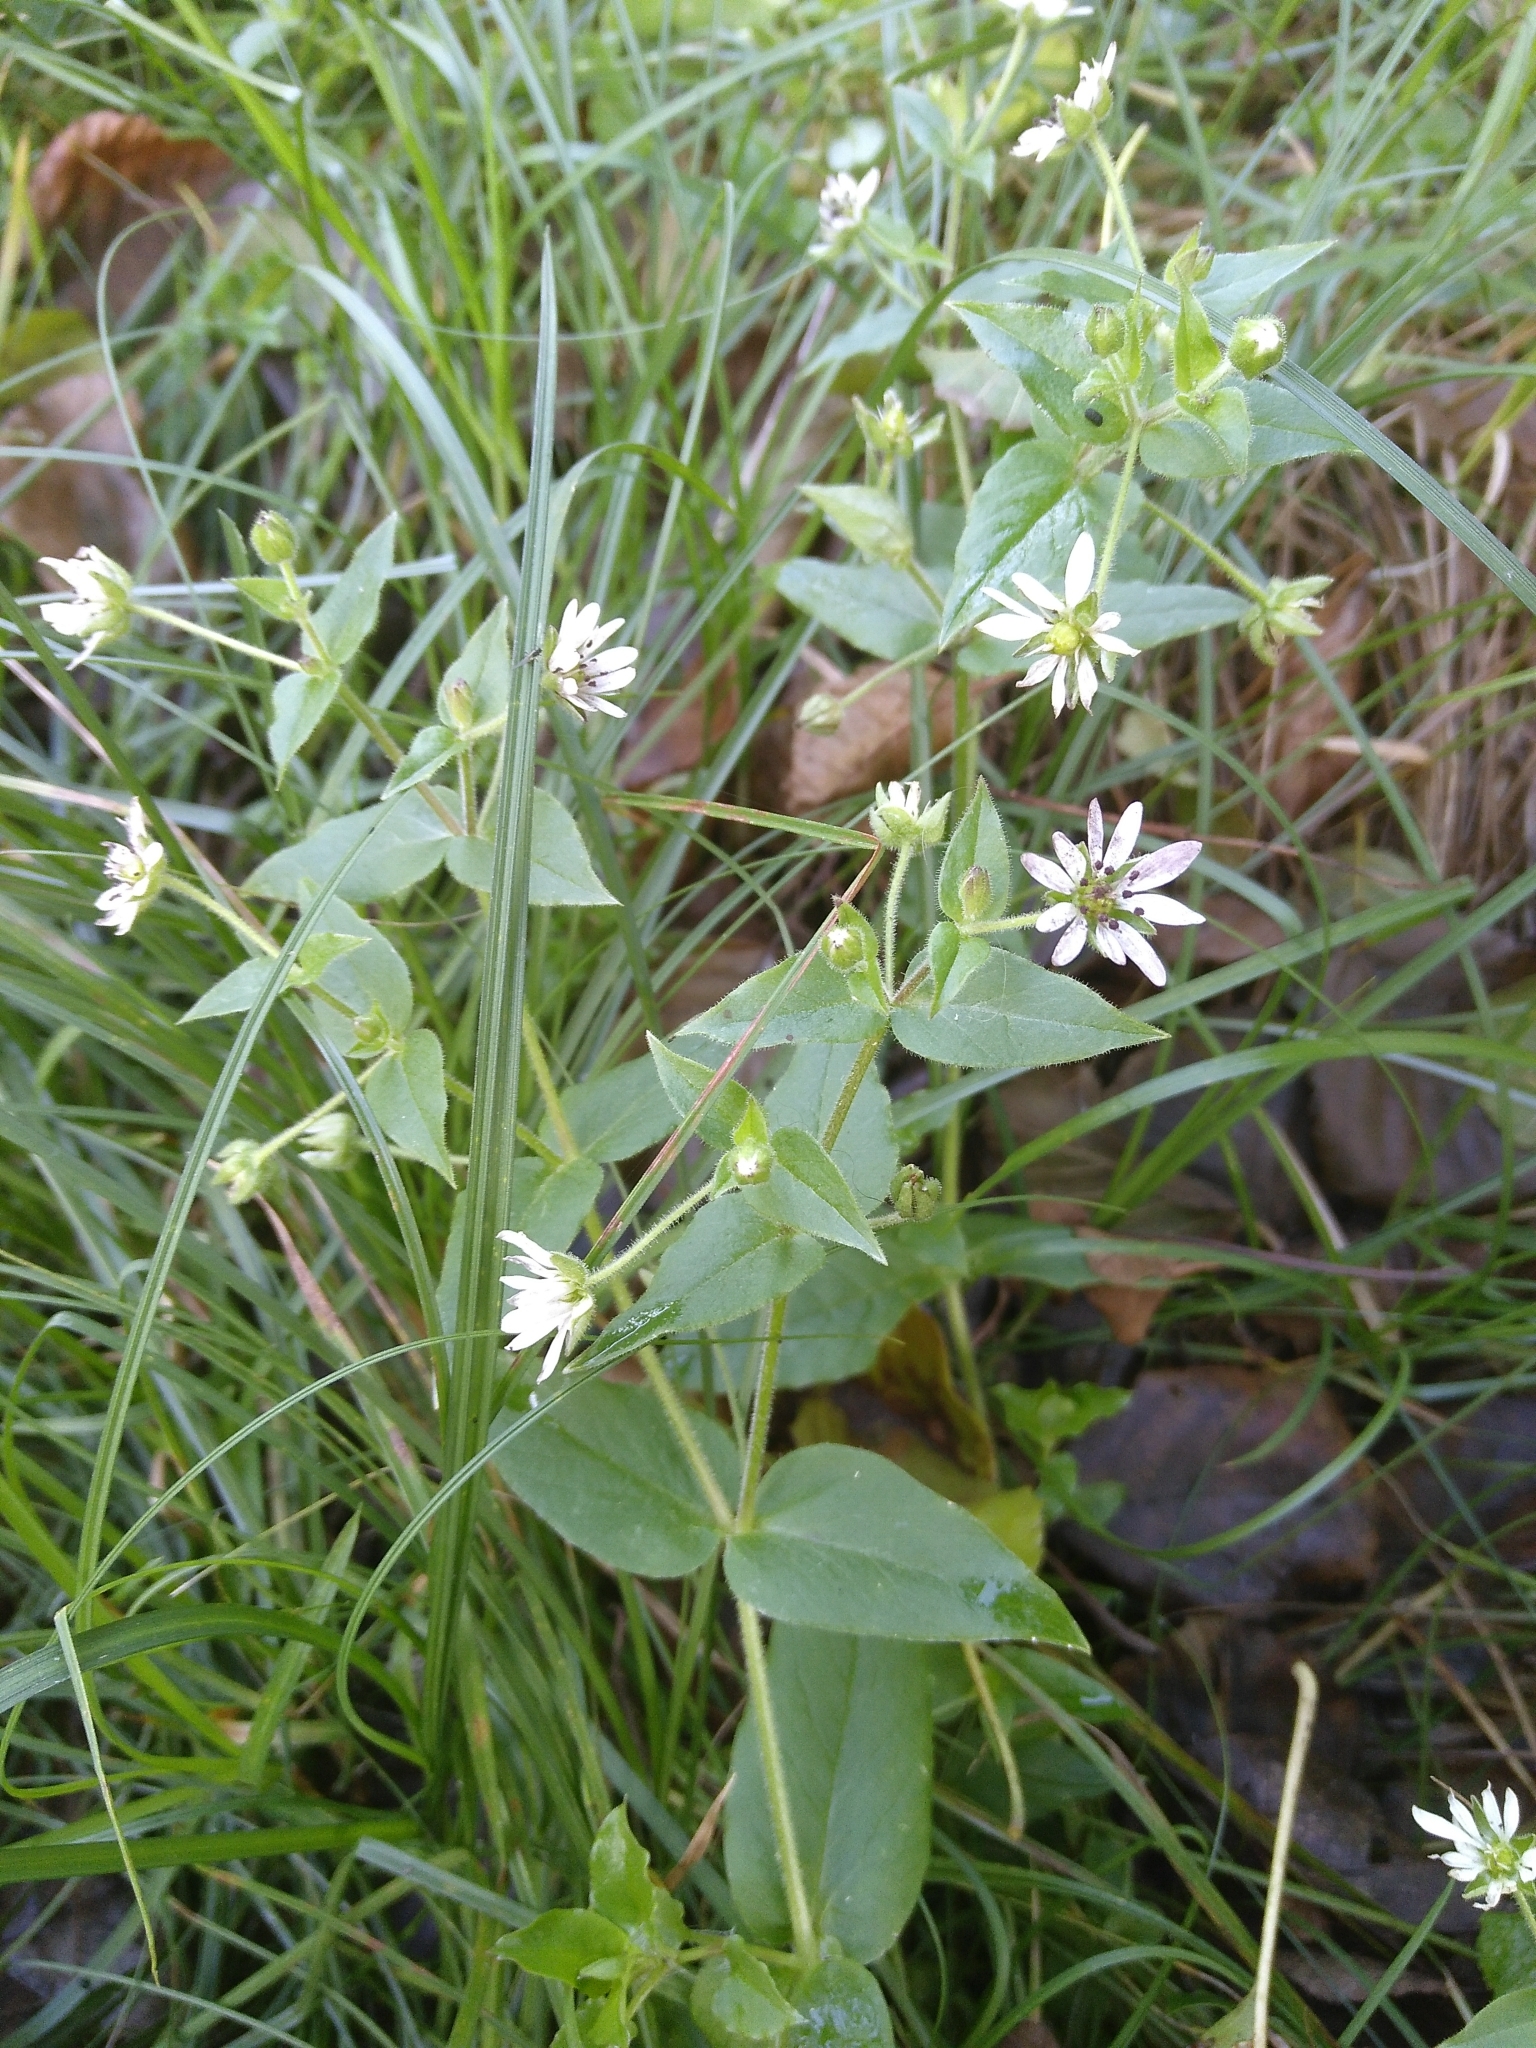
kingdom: Plantae
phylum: Tracheophyta
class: Magnoliopsida
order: Caryophyllales
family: Caryophyllaceae
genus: Stellaria
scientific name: Stellaria aquatica
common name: Water chickweed
